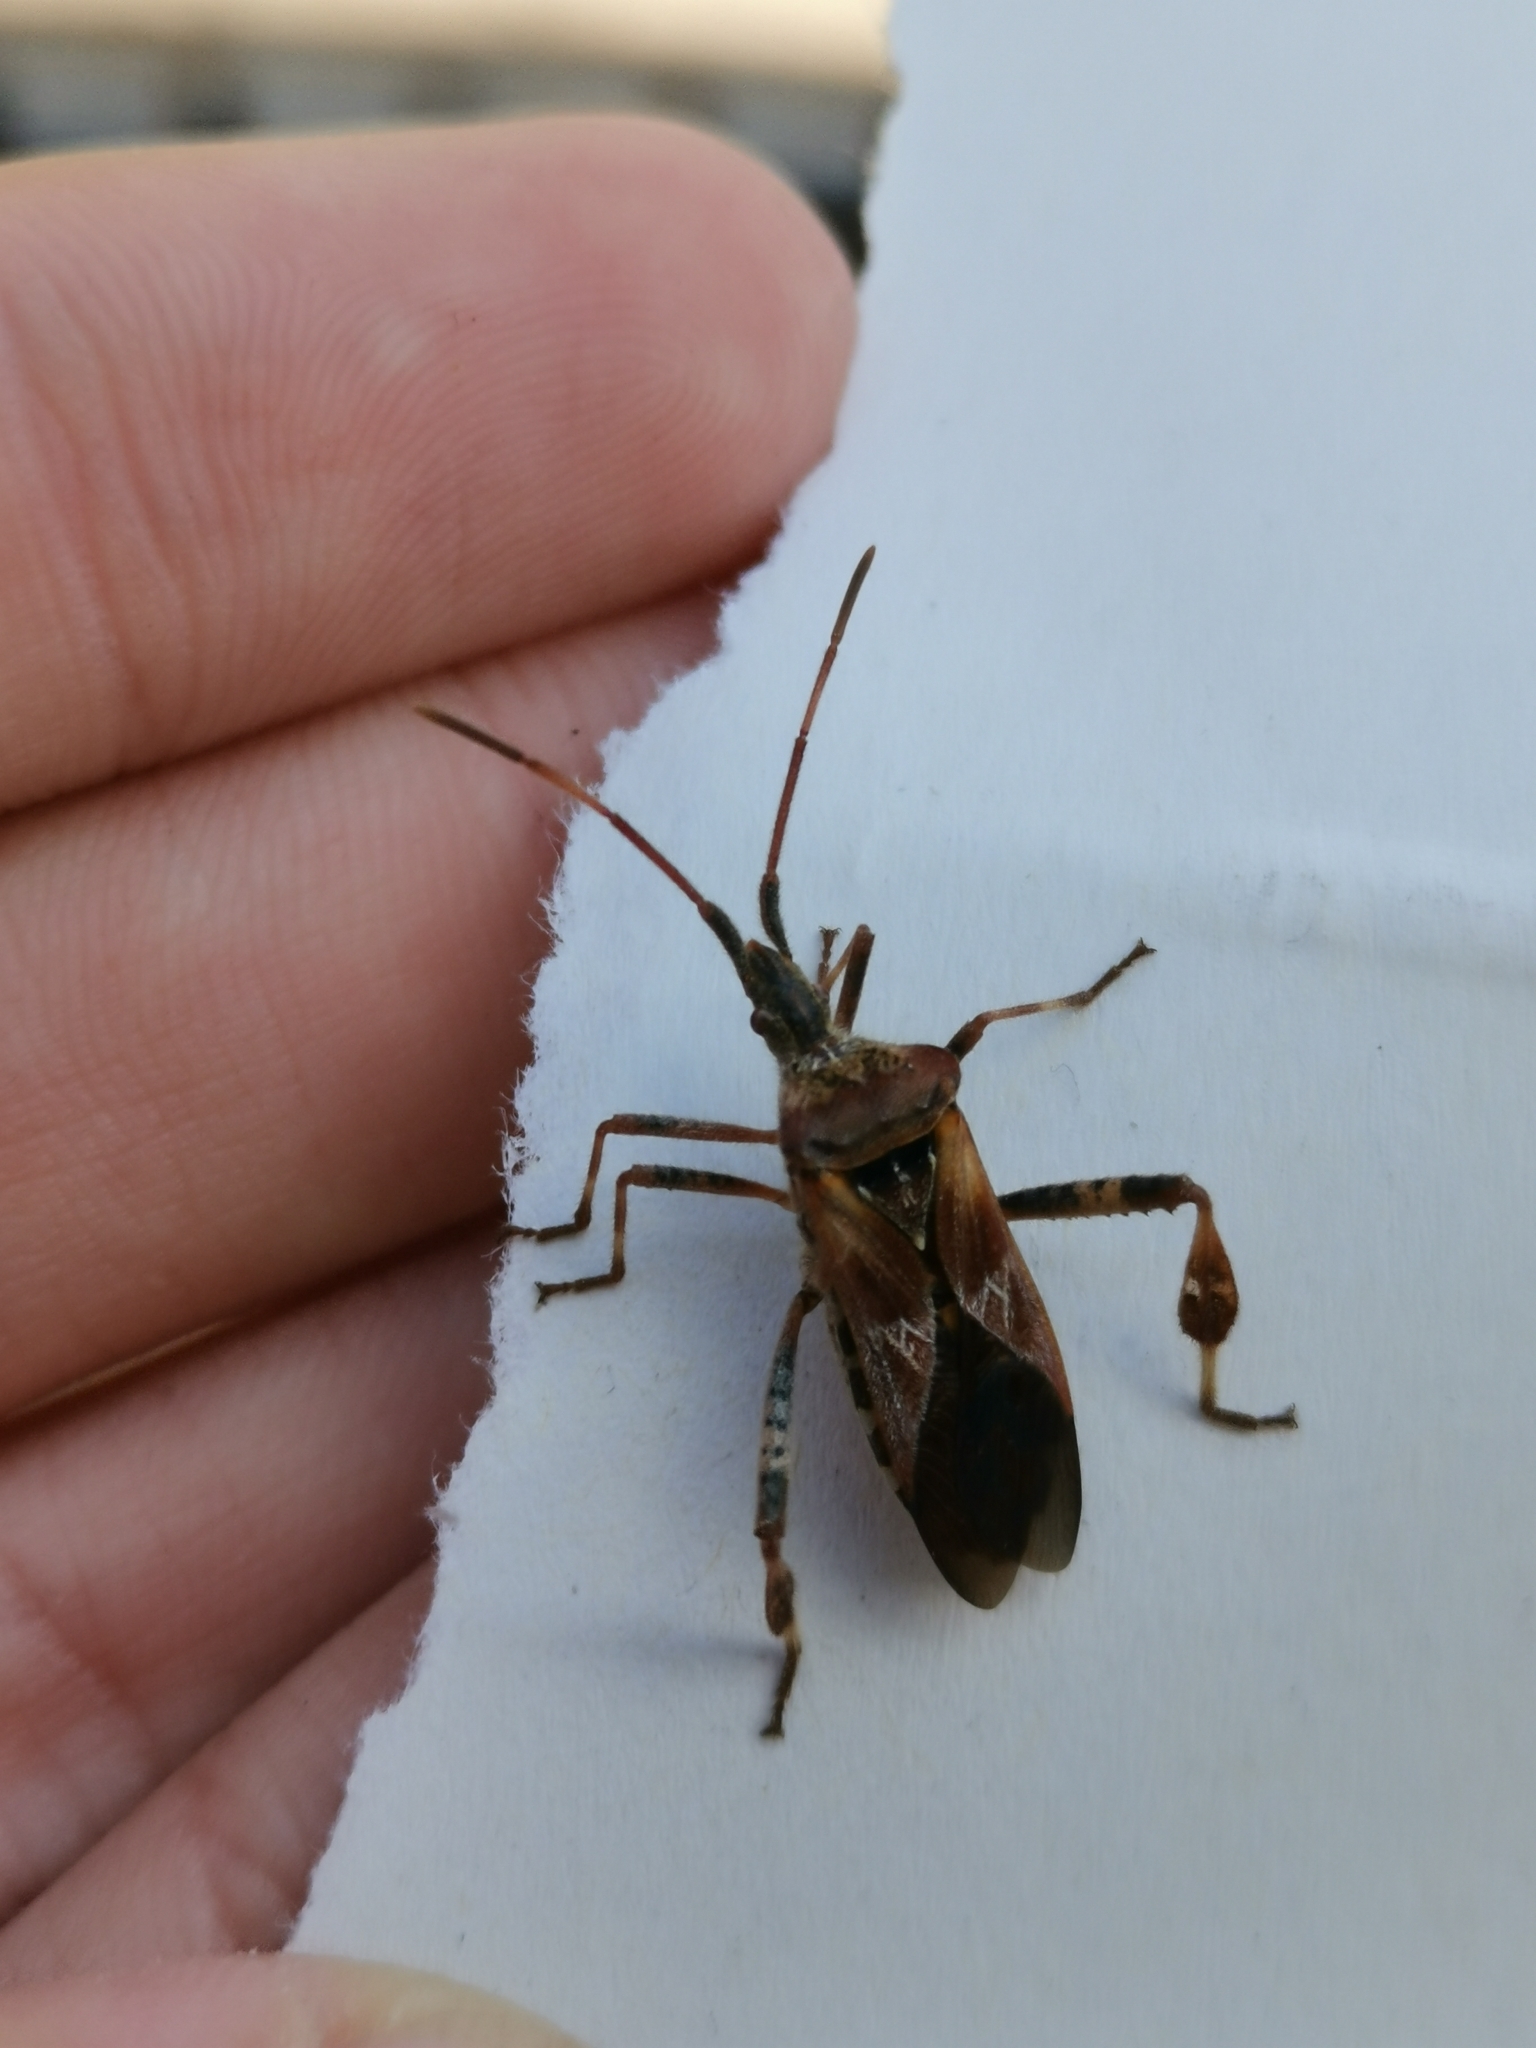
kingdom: Animalia
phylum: Arthropoda
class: Insecta
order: Hemiptera
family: Coreidae
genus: Leptoglossus
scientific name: Leptoglossus occidentalis
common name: Western conifer-seed bug
